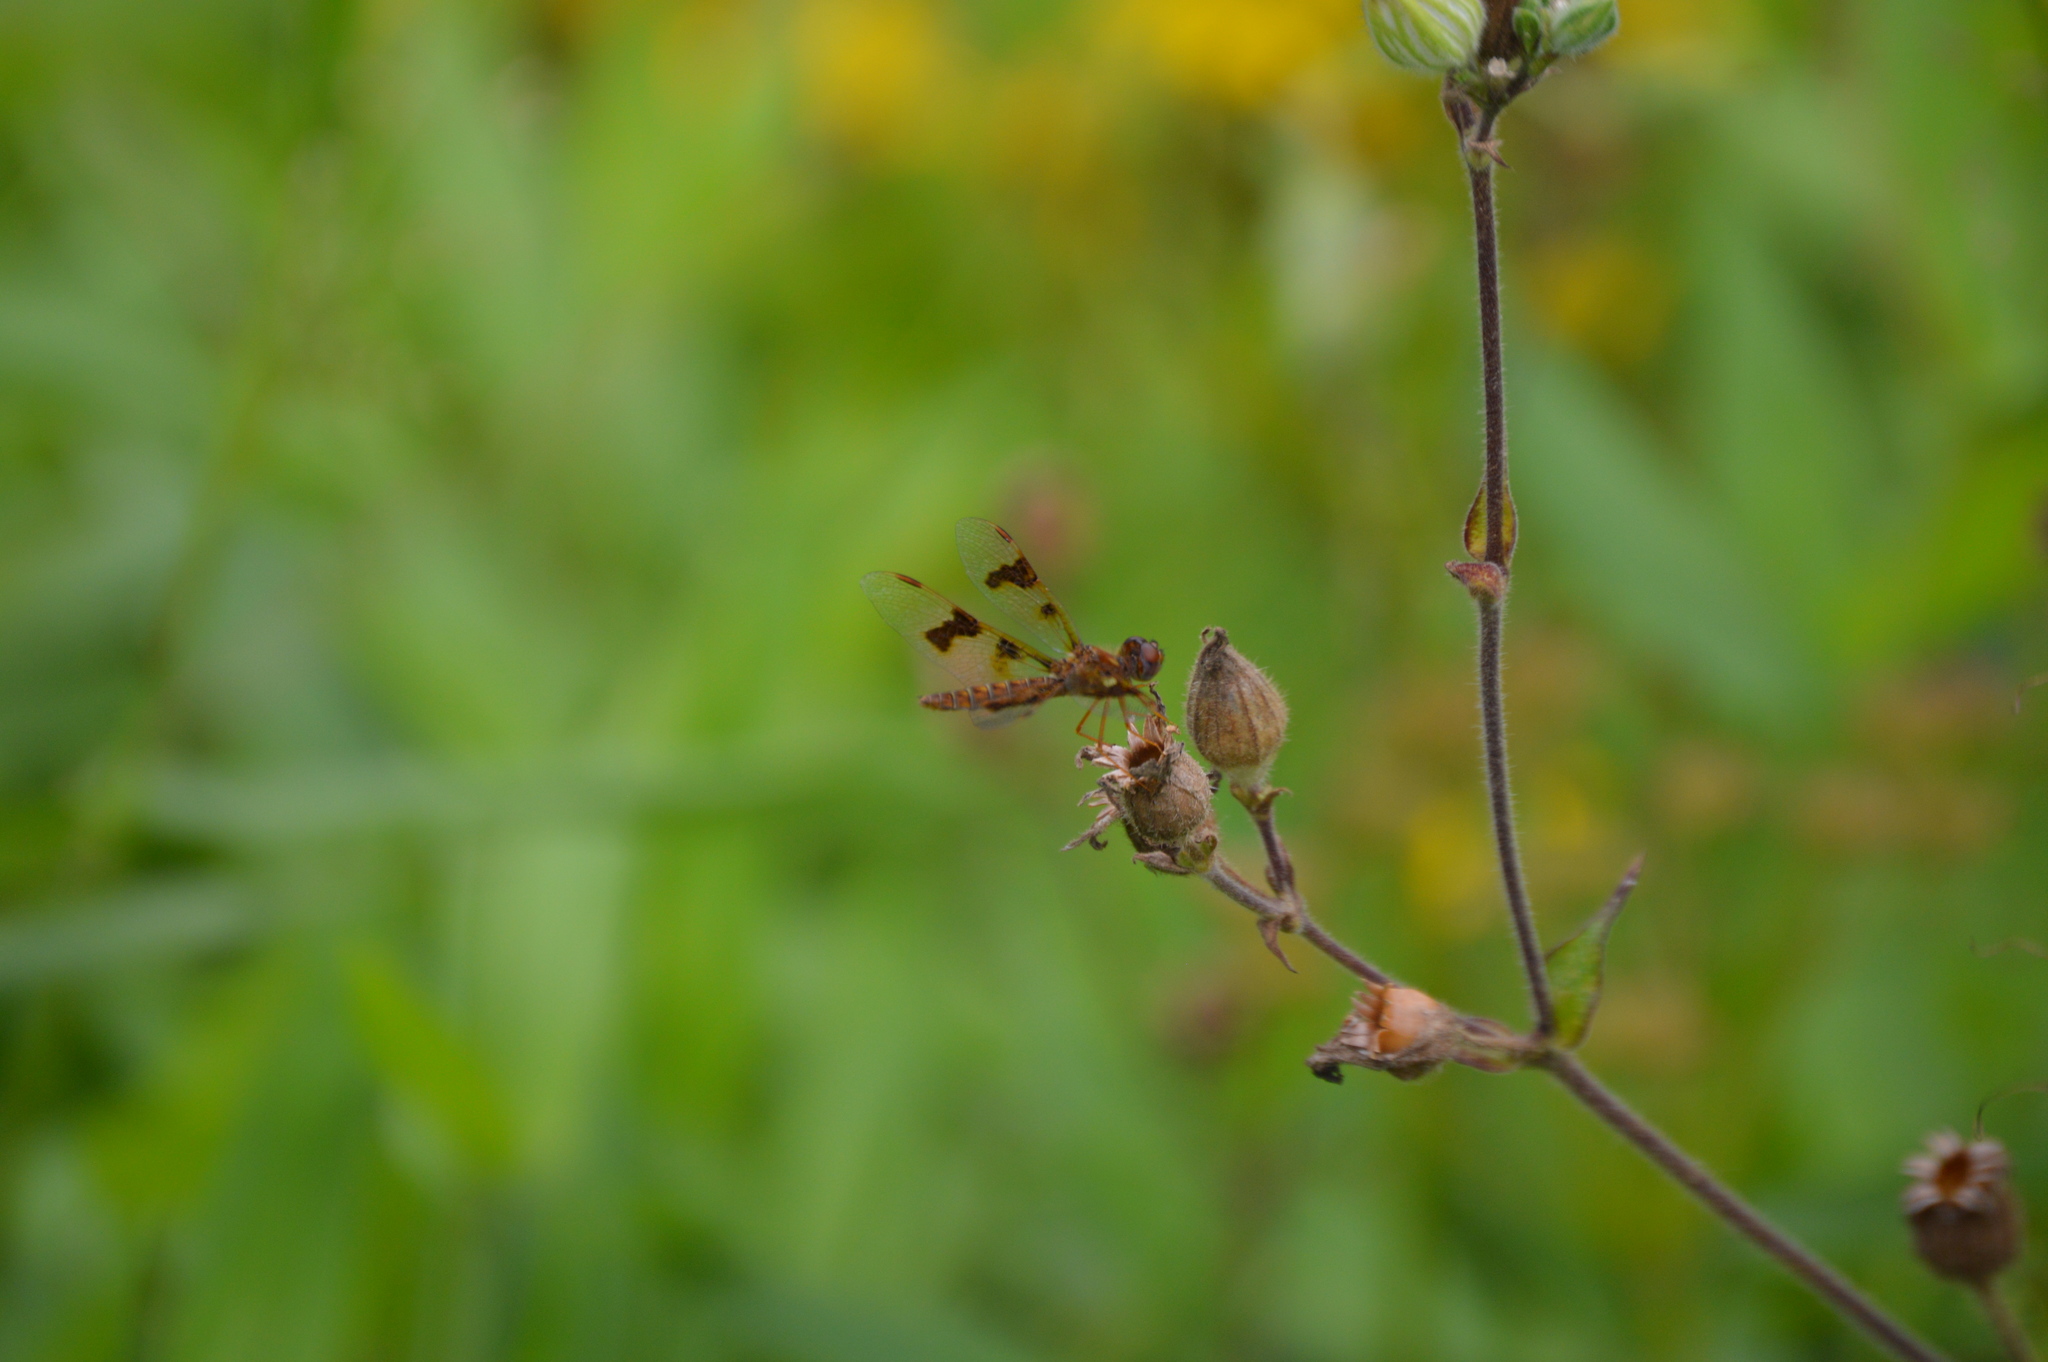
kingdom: Animalia
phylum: Arthropoda
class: Insecta
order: Odonata
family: Libellulidae
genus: Perithemis
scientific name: Perithemis tenera
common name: Eastern amberwing
